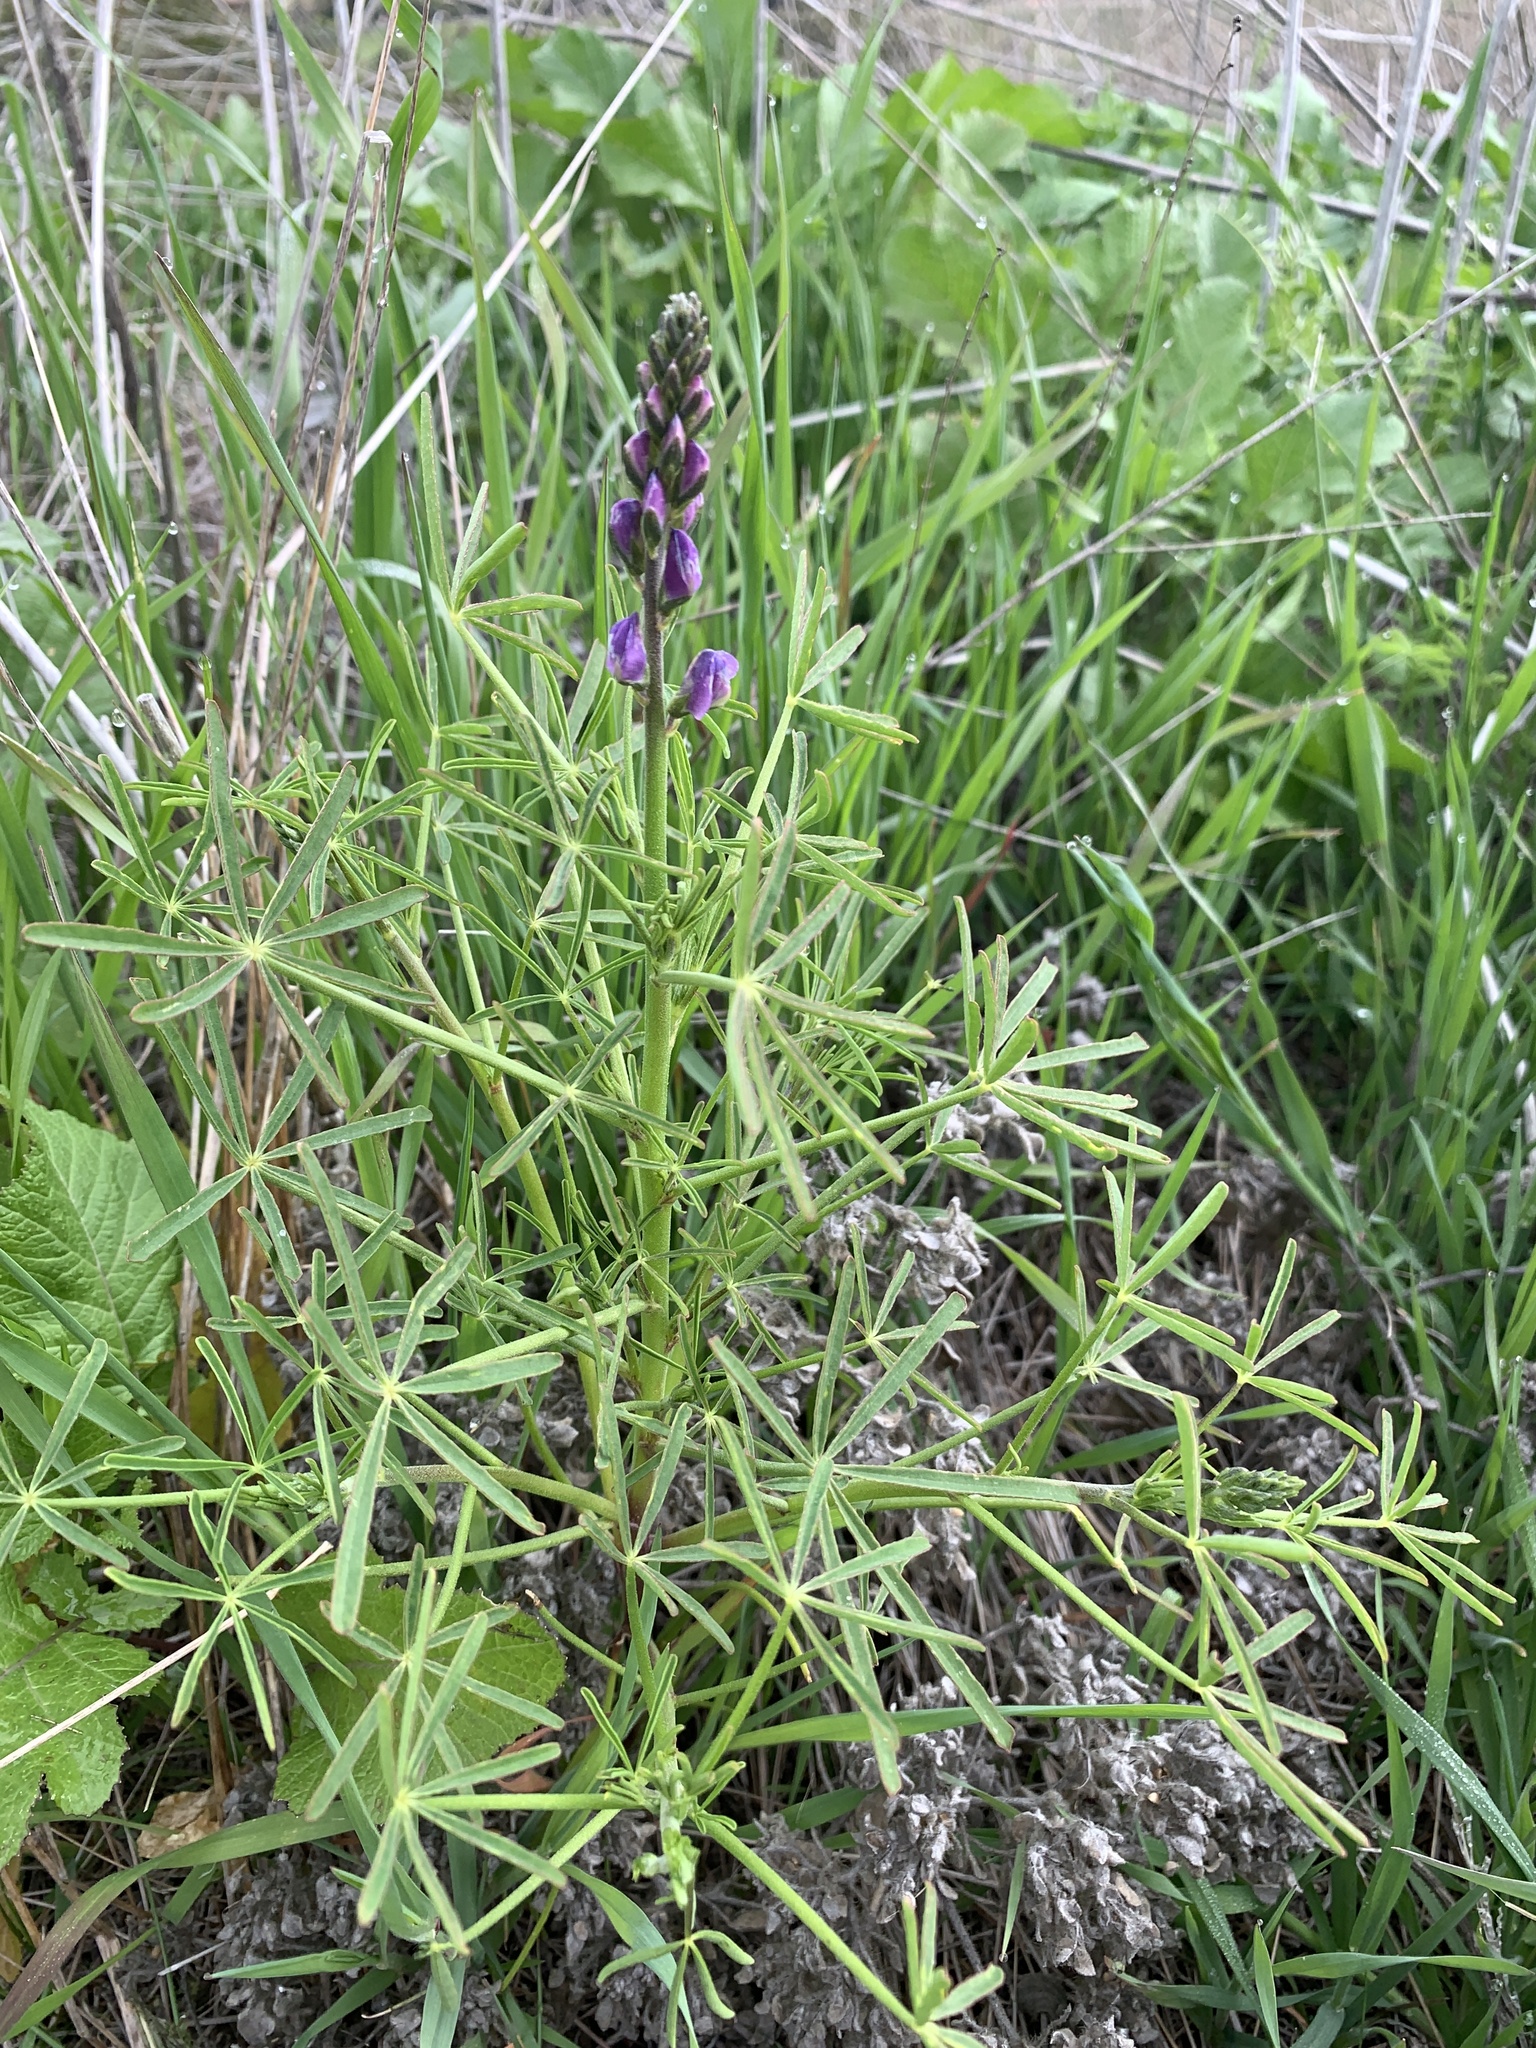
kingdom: Plantae
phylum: Tracheophyta
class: Magnoliopsida
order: Fabales
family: Fabaceae
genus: Lupinus
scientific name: Lupinus truncatus
